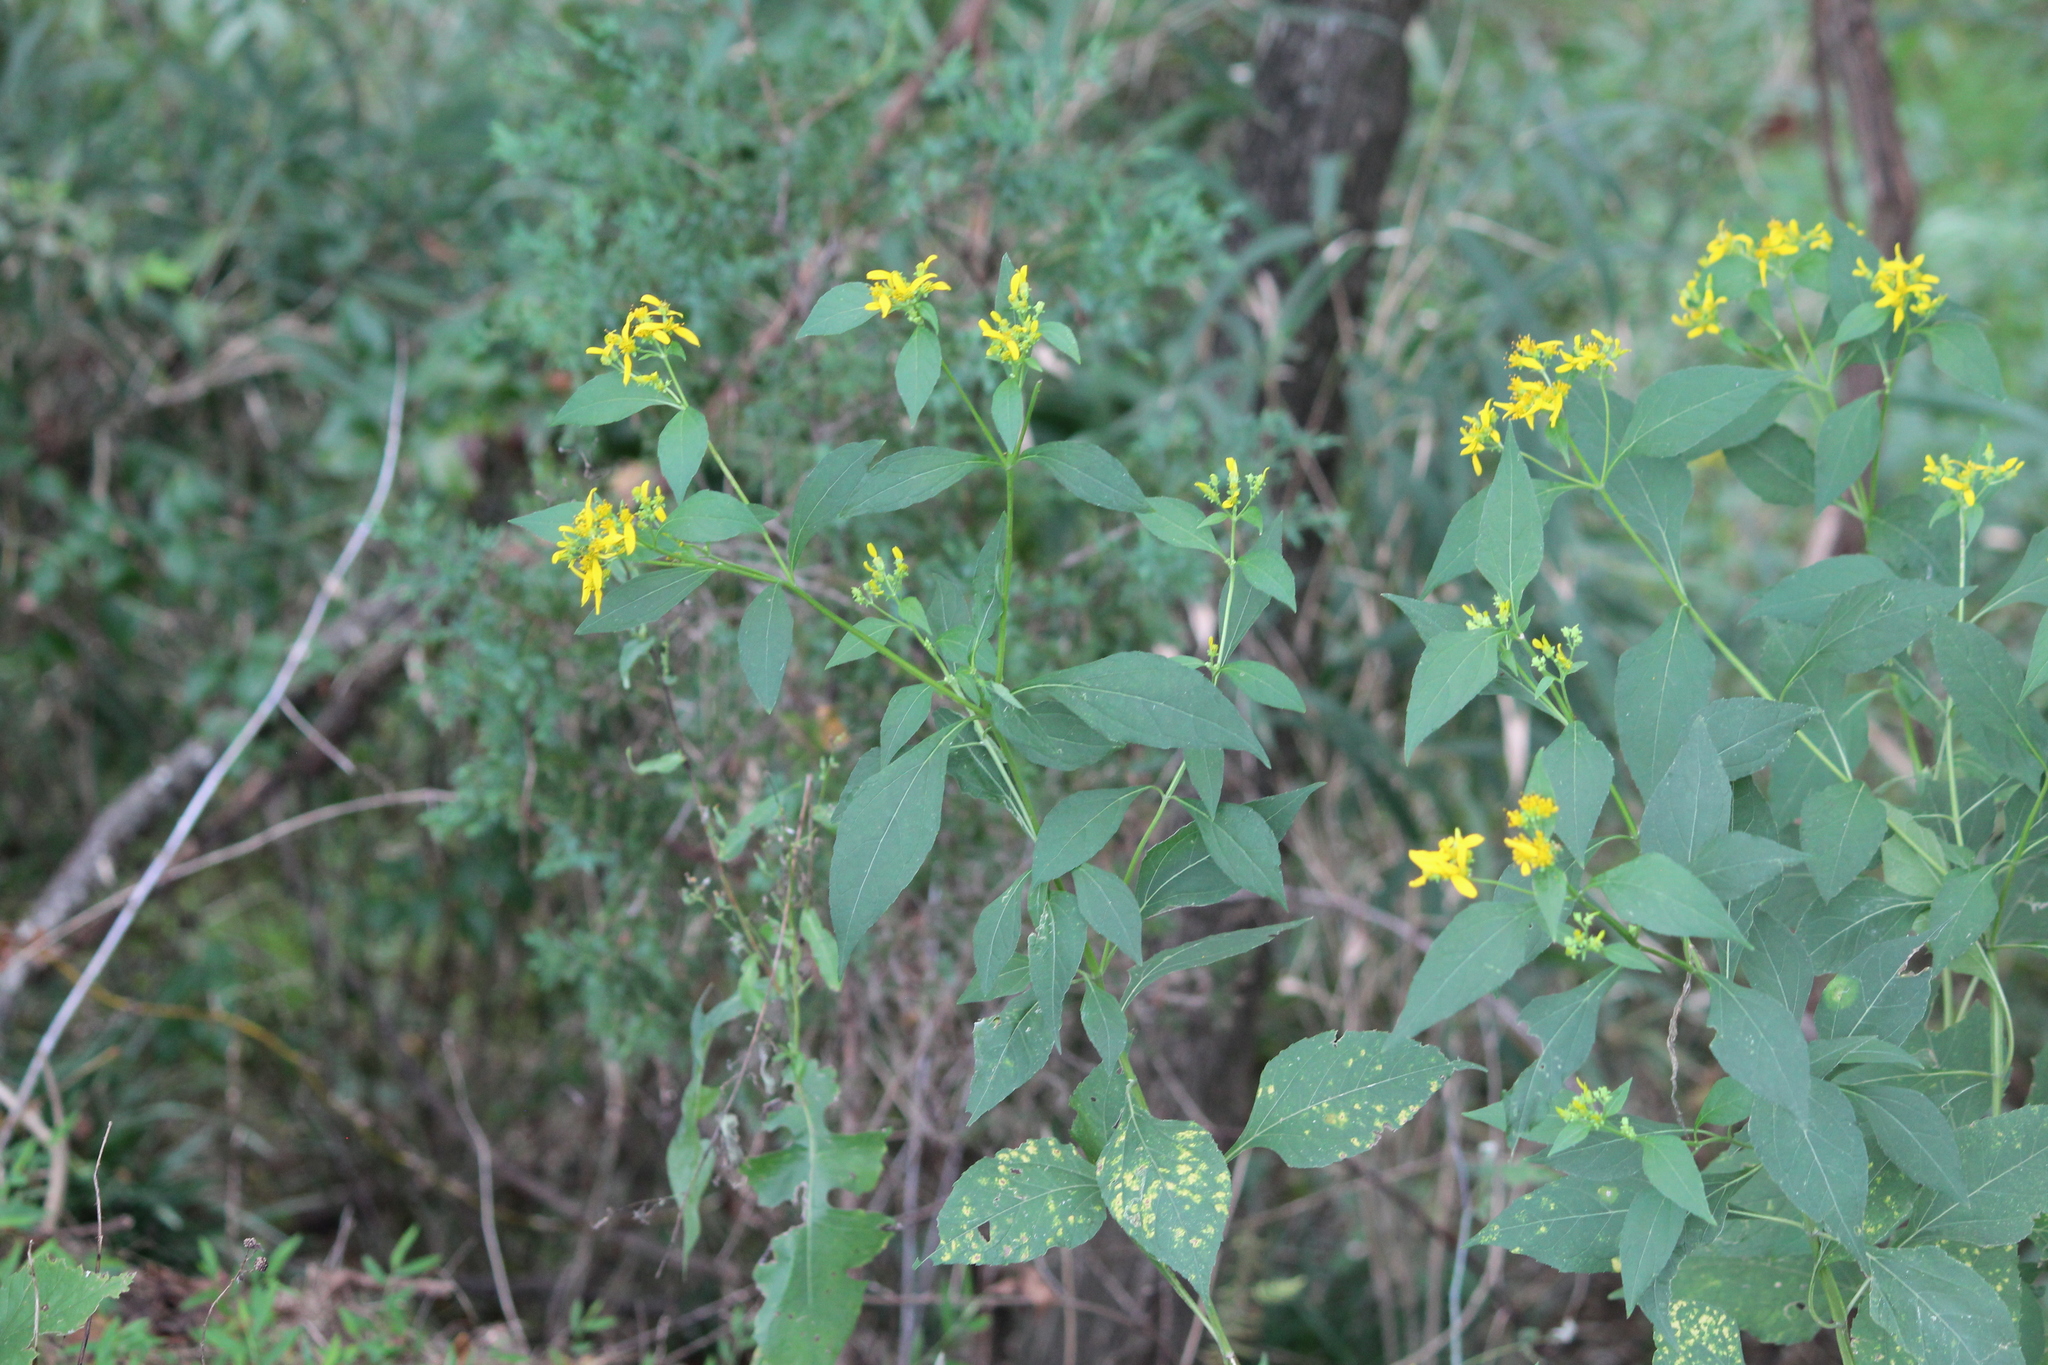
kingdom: Plantae
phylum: Tracheophyta
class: Magnoliopsida
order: Asterales
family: Asteraceae
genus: Verbesina
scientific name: Verbesina occidentalis
